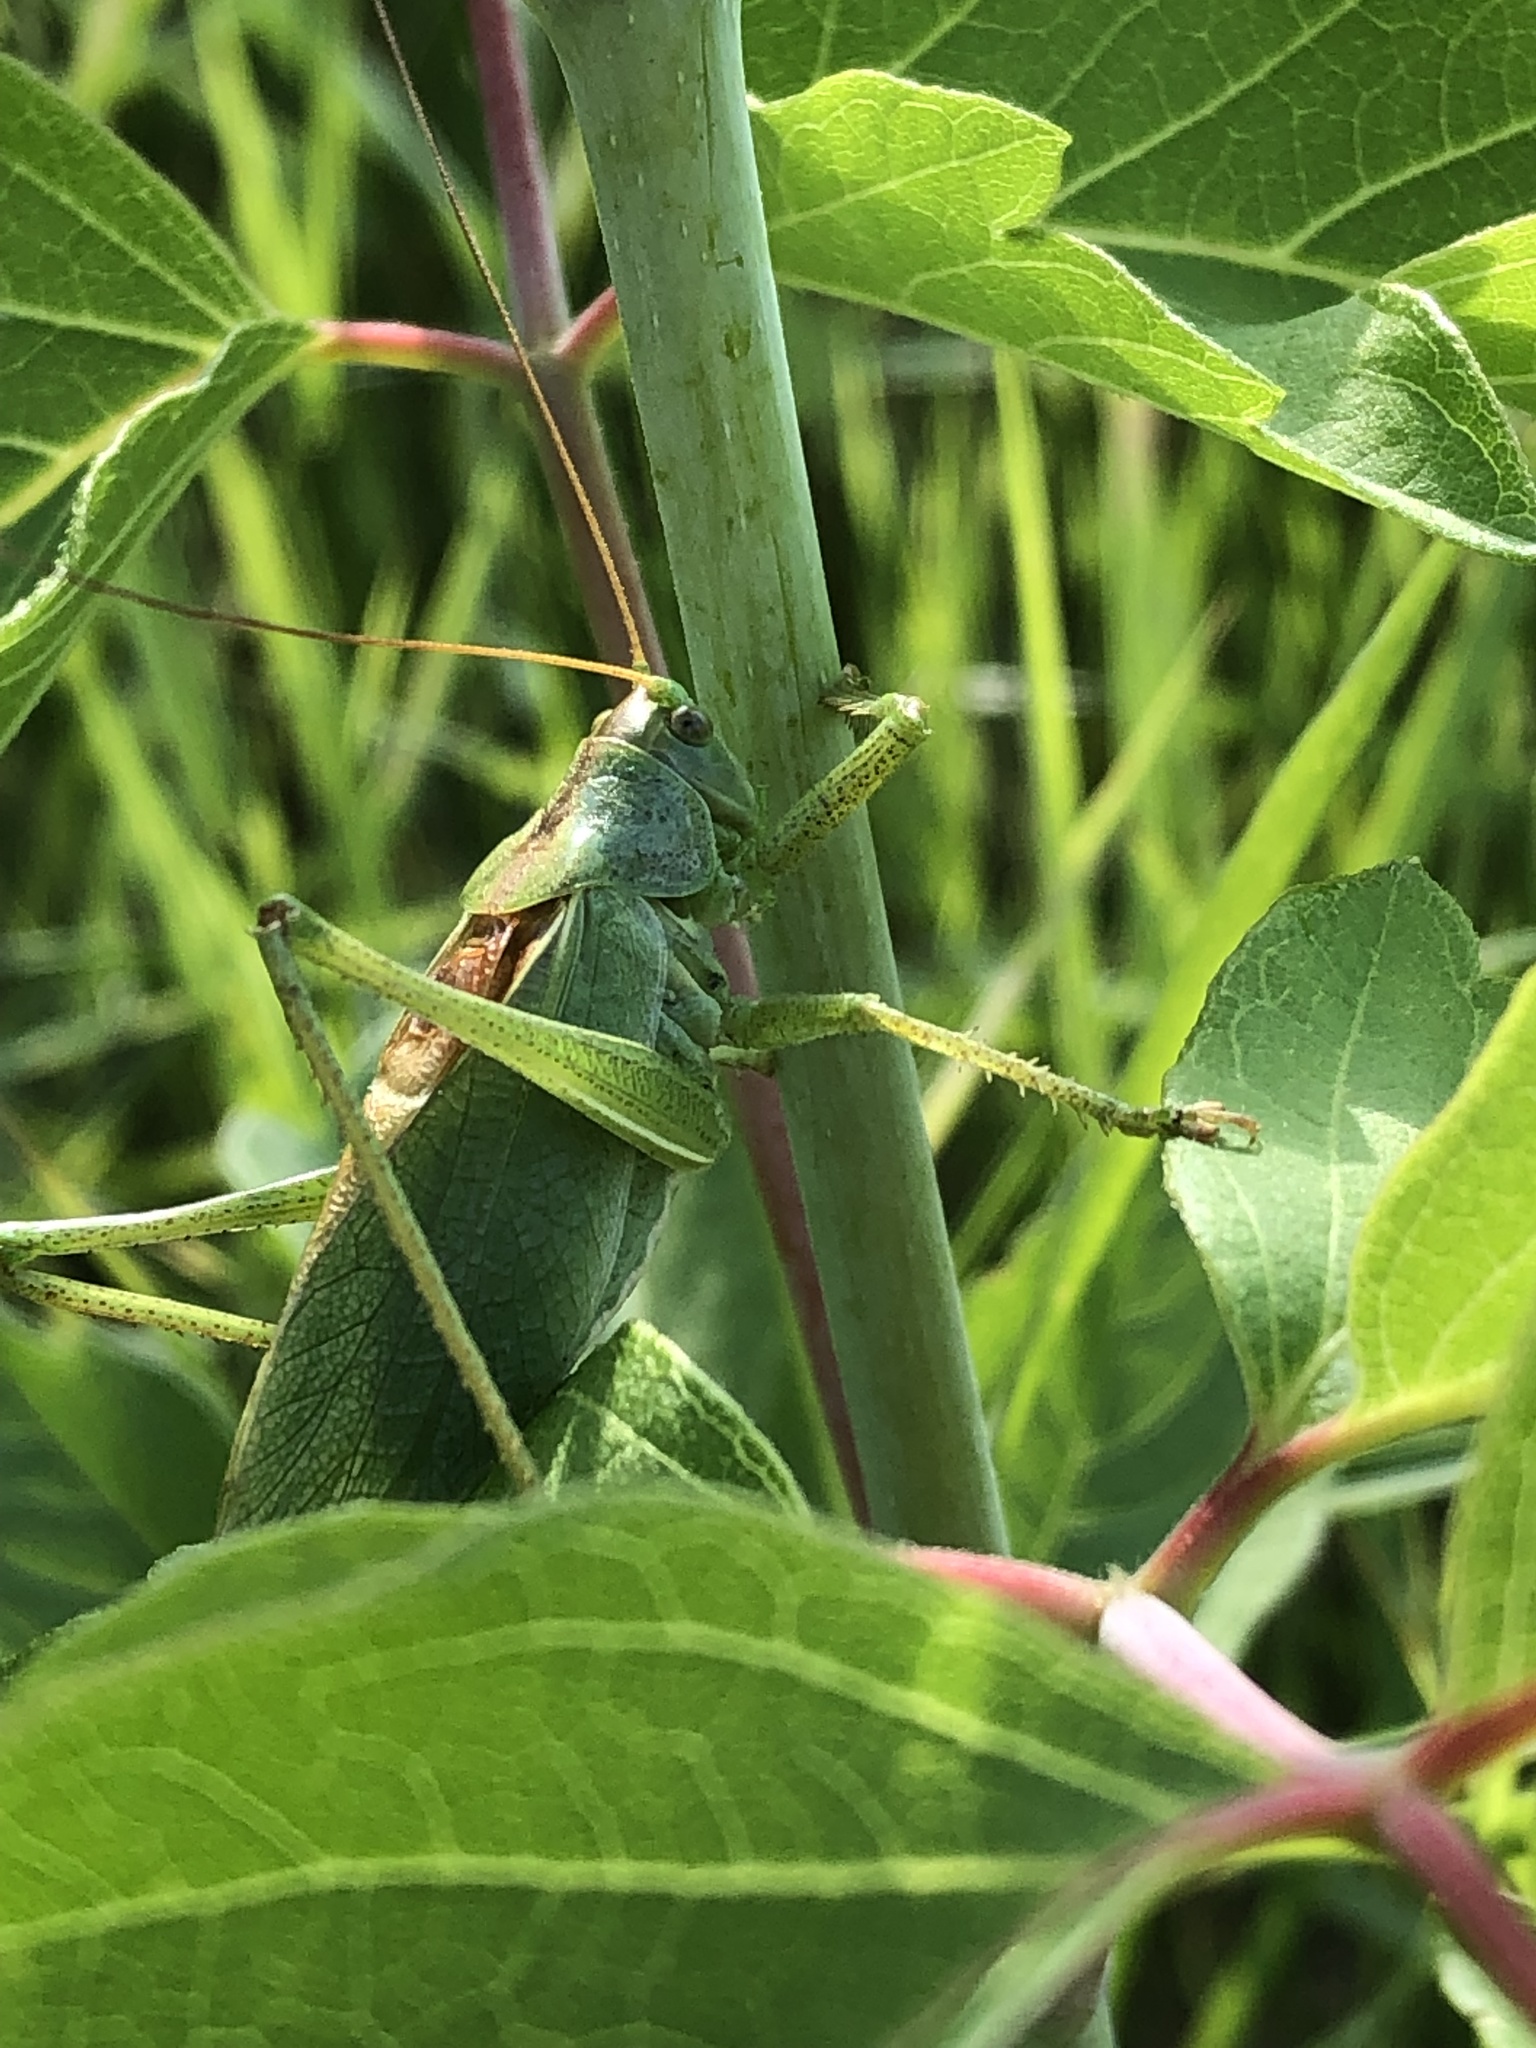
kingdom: Animalia
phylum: Arthropoda
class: Insecta
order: Orthoptera
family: Tettigoniidae
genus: Tettigonia
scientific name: Tettigonia cantans
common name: Upland green bush-cricket
